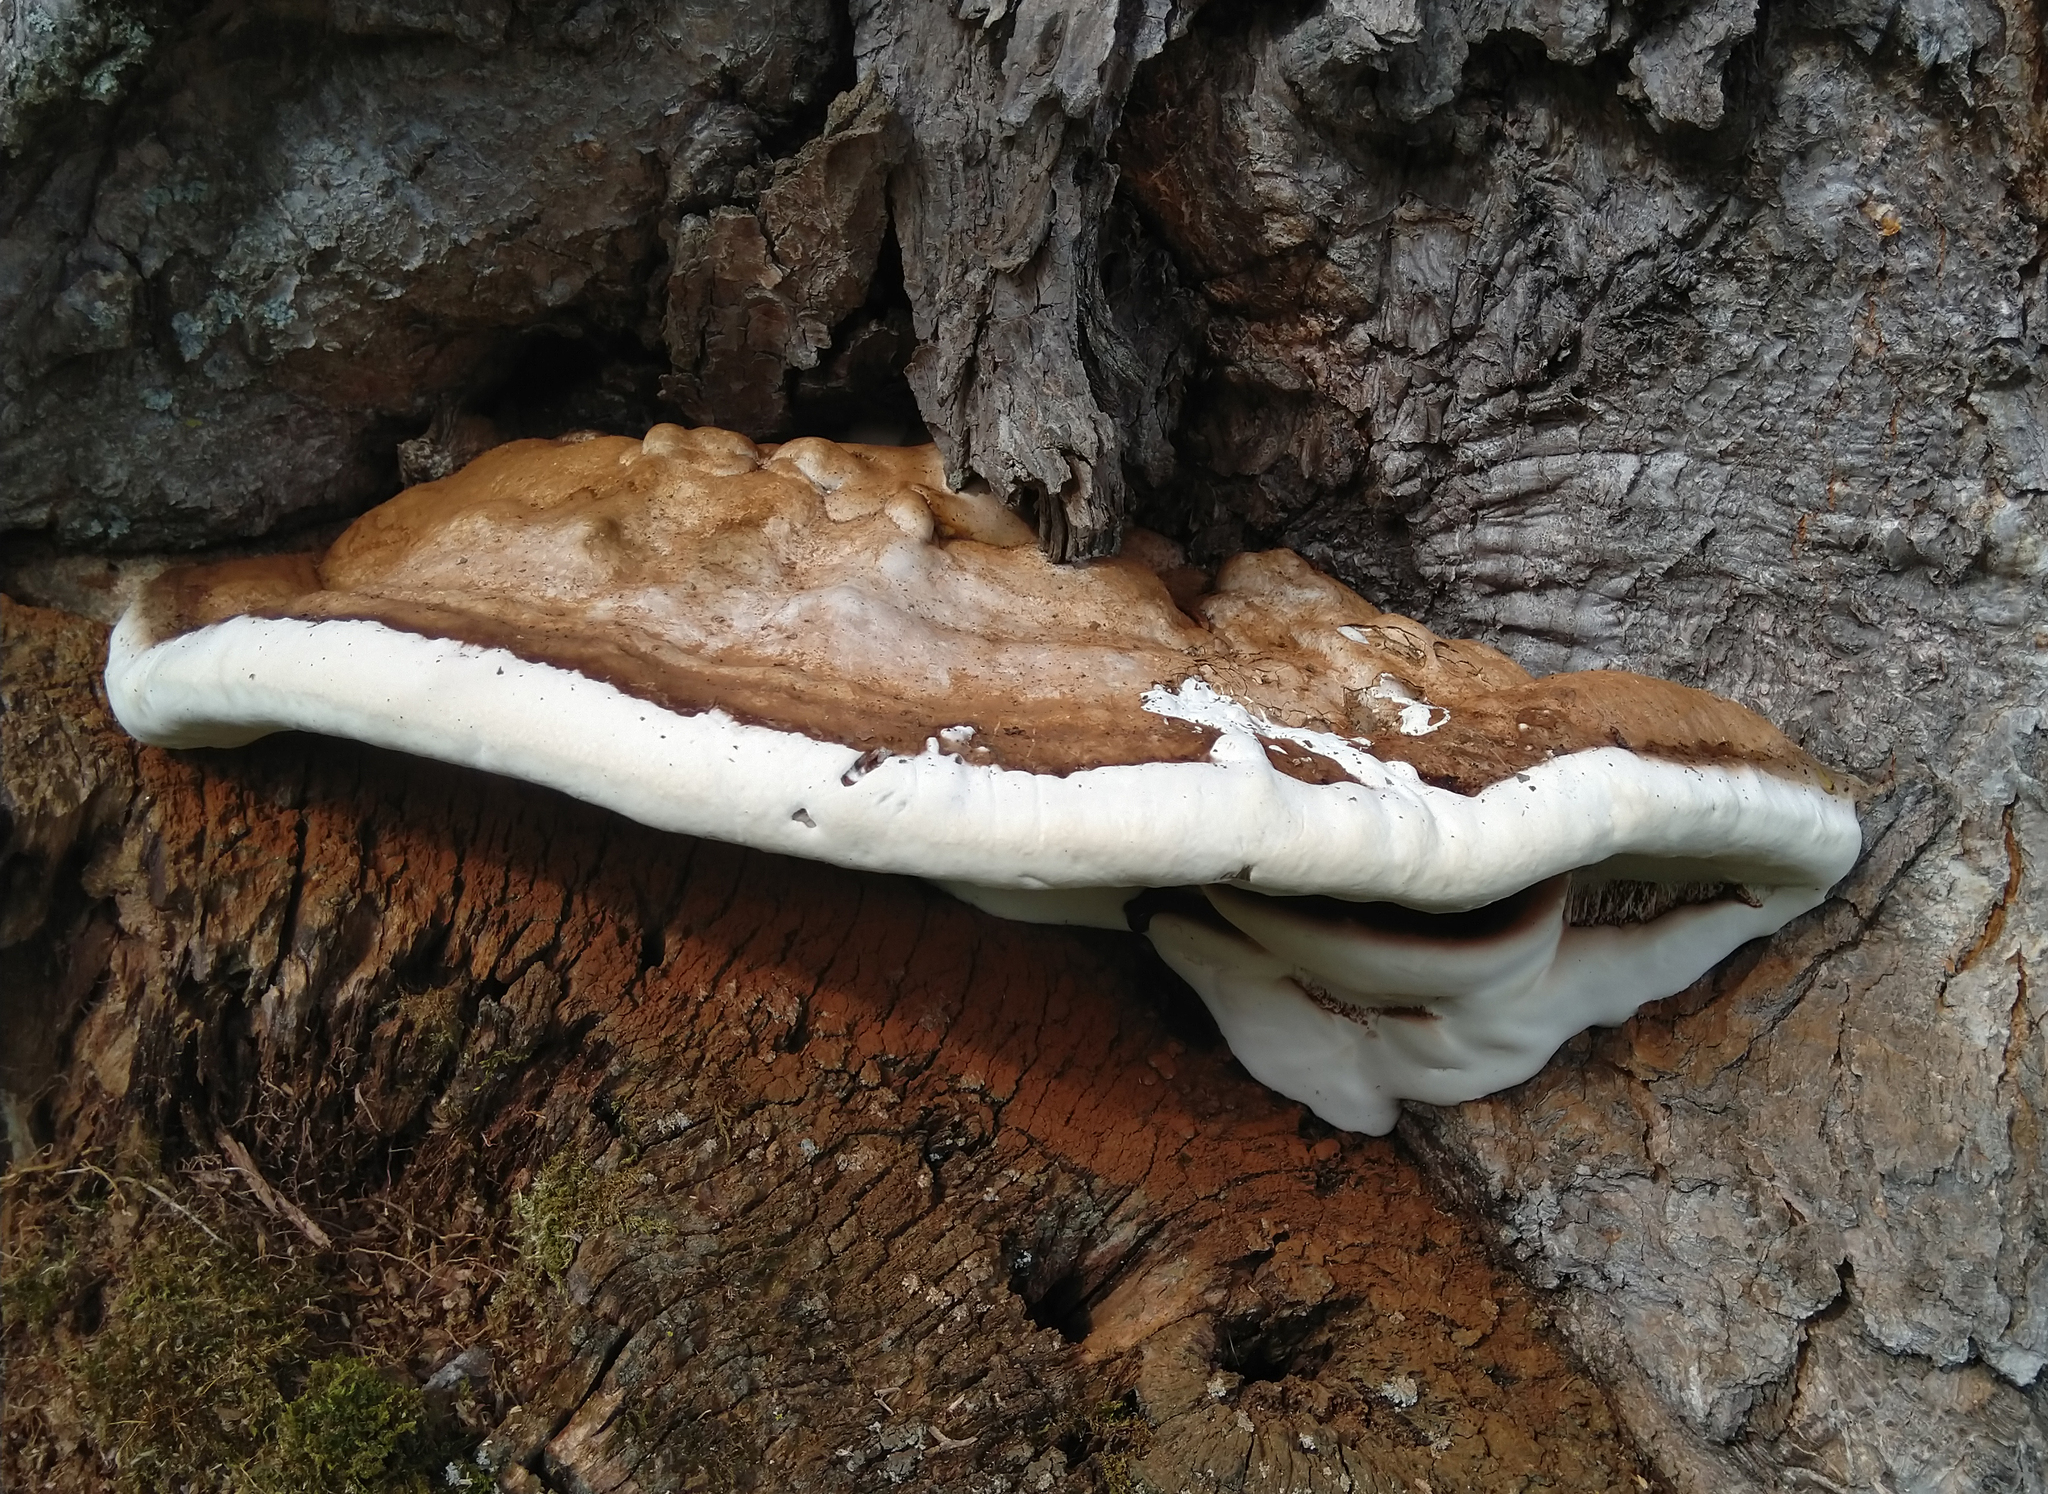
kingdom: Fungi
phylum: Basidiomycota
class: Agaricomycetes
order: Polyporales
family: Polyporaceae
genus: Ganoderma
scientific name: Ganoderma applanatum
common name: Artist's bracket
